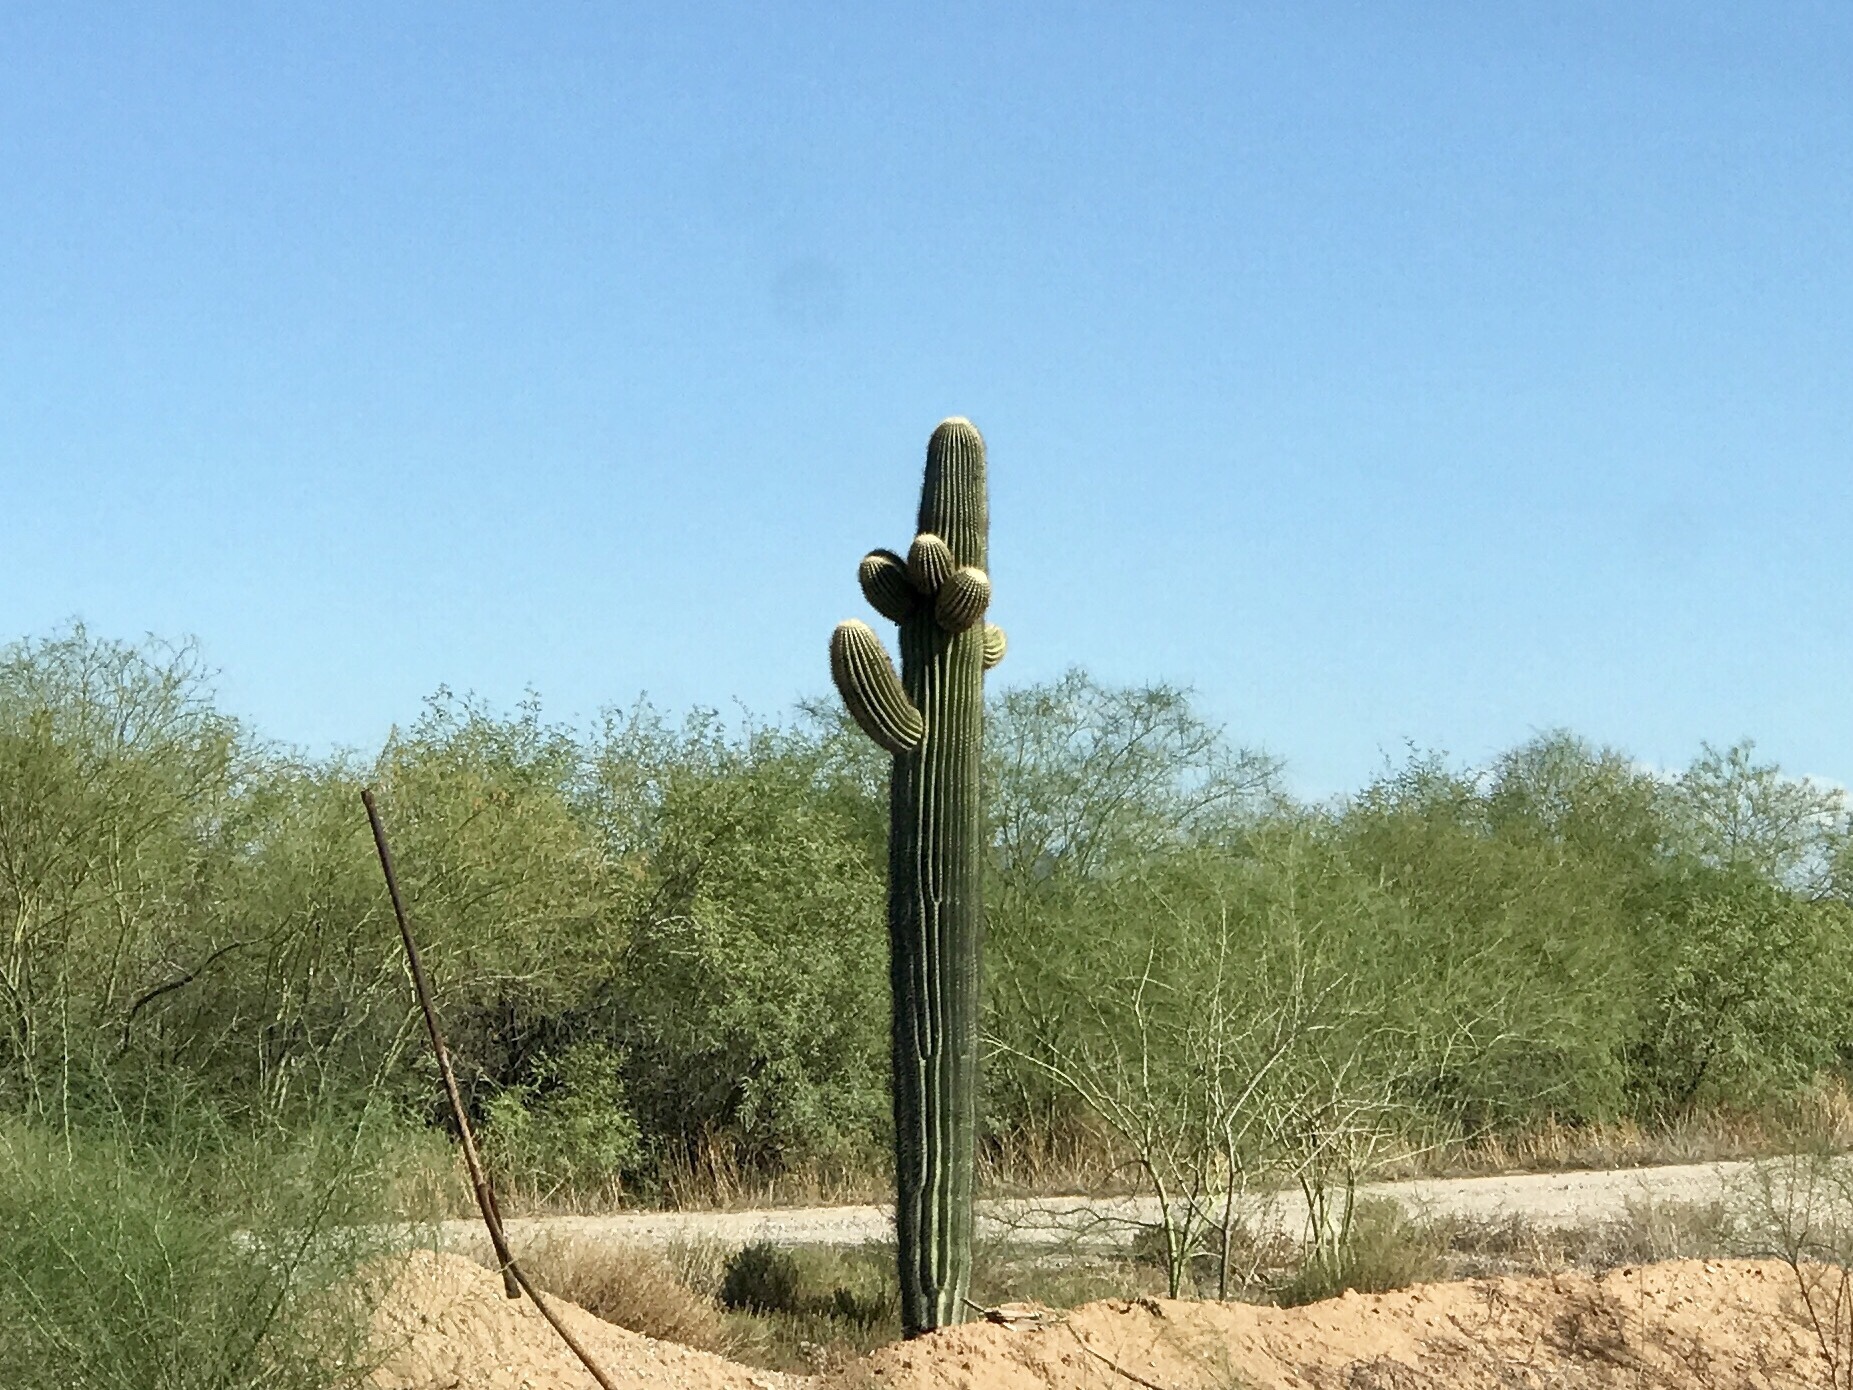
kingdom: Plantae
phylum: Tracheophyta
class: Magnoliopsida
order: Caryophyllales
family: Cactaceae
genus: Carnegiea
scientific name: Carnegiea gigantea
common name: Saguaro
